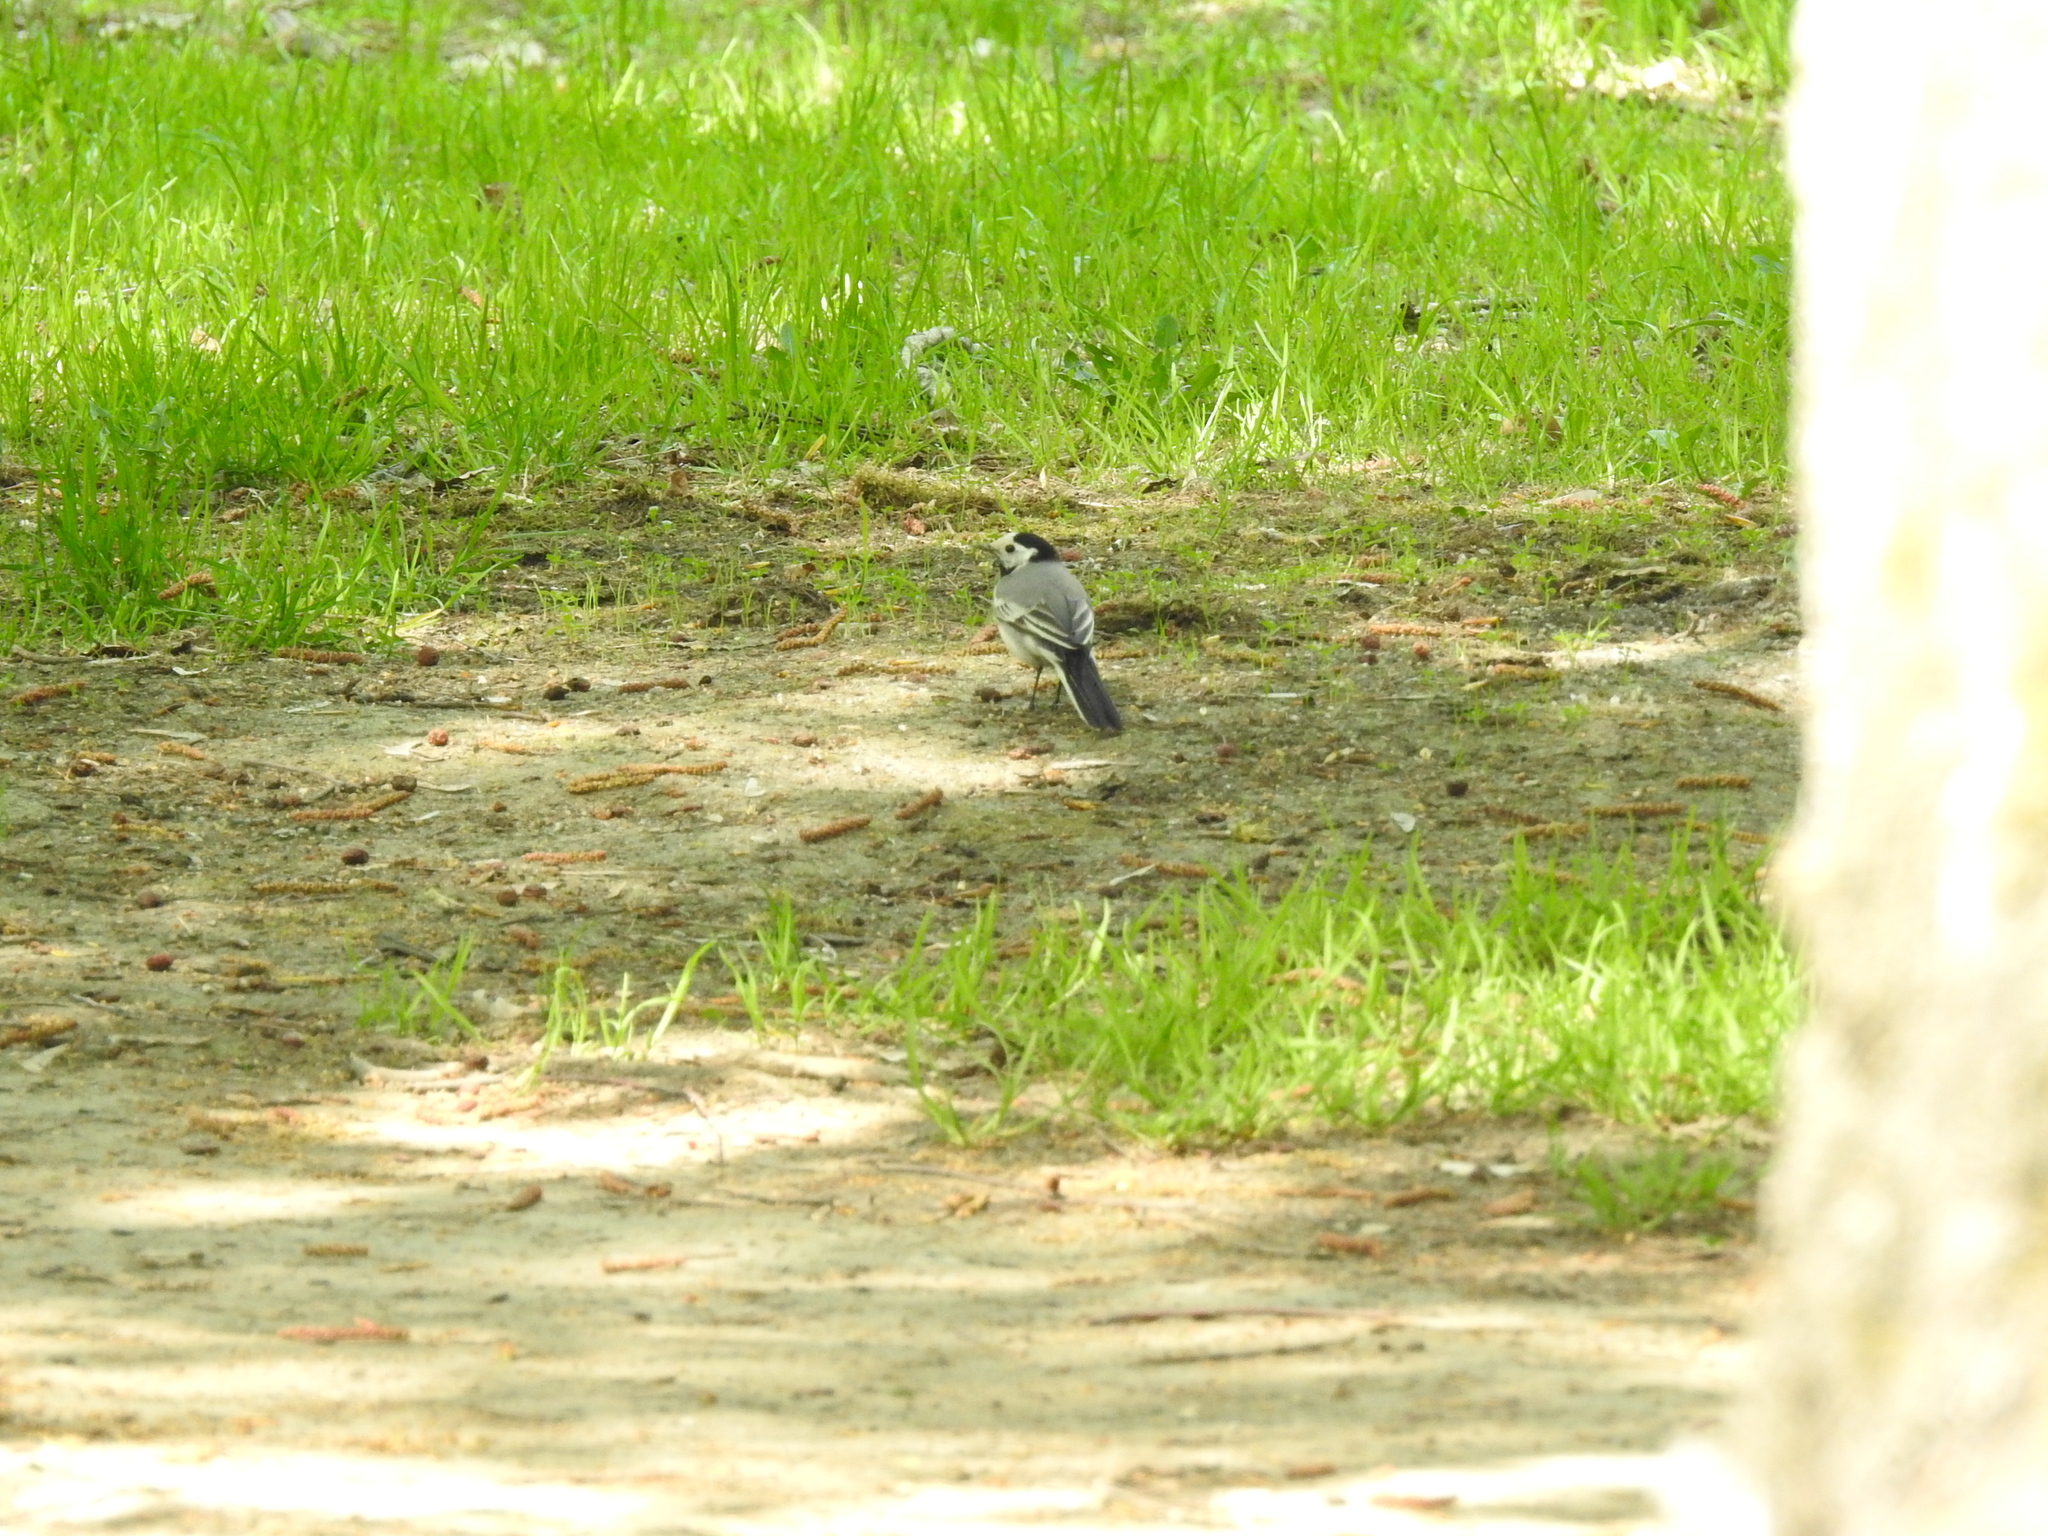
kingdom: Animalia
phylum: Chordata
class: Aves
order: Passeriformes
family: Motacillidae
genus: Motacilla
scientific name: Motacilla alba
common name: White wagtail
